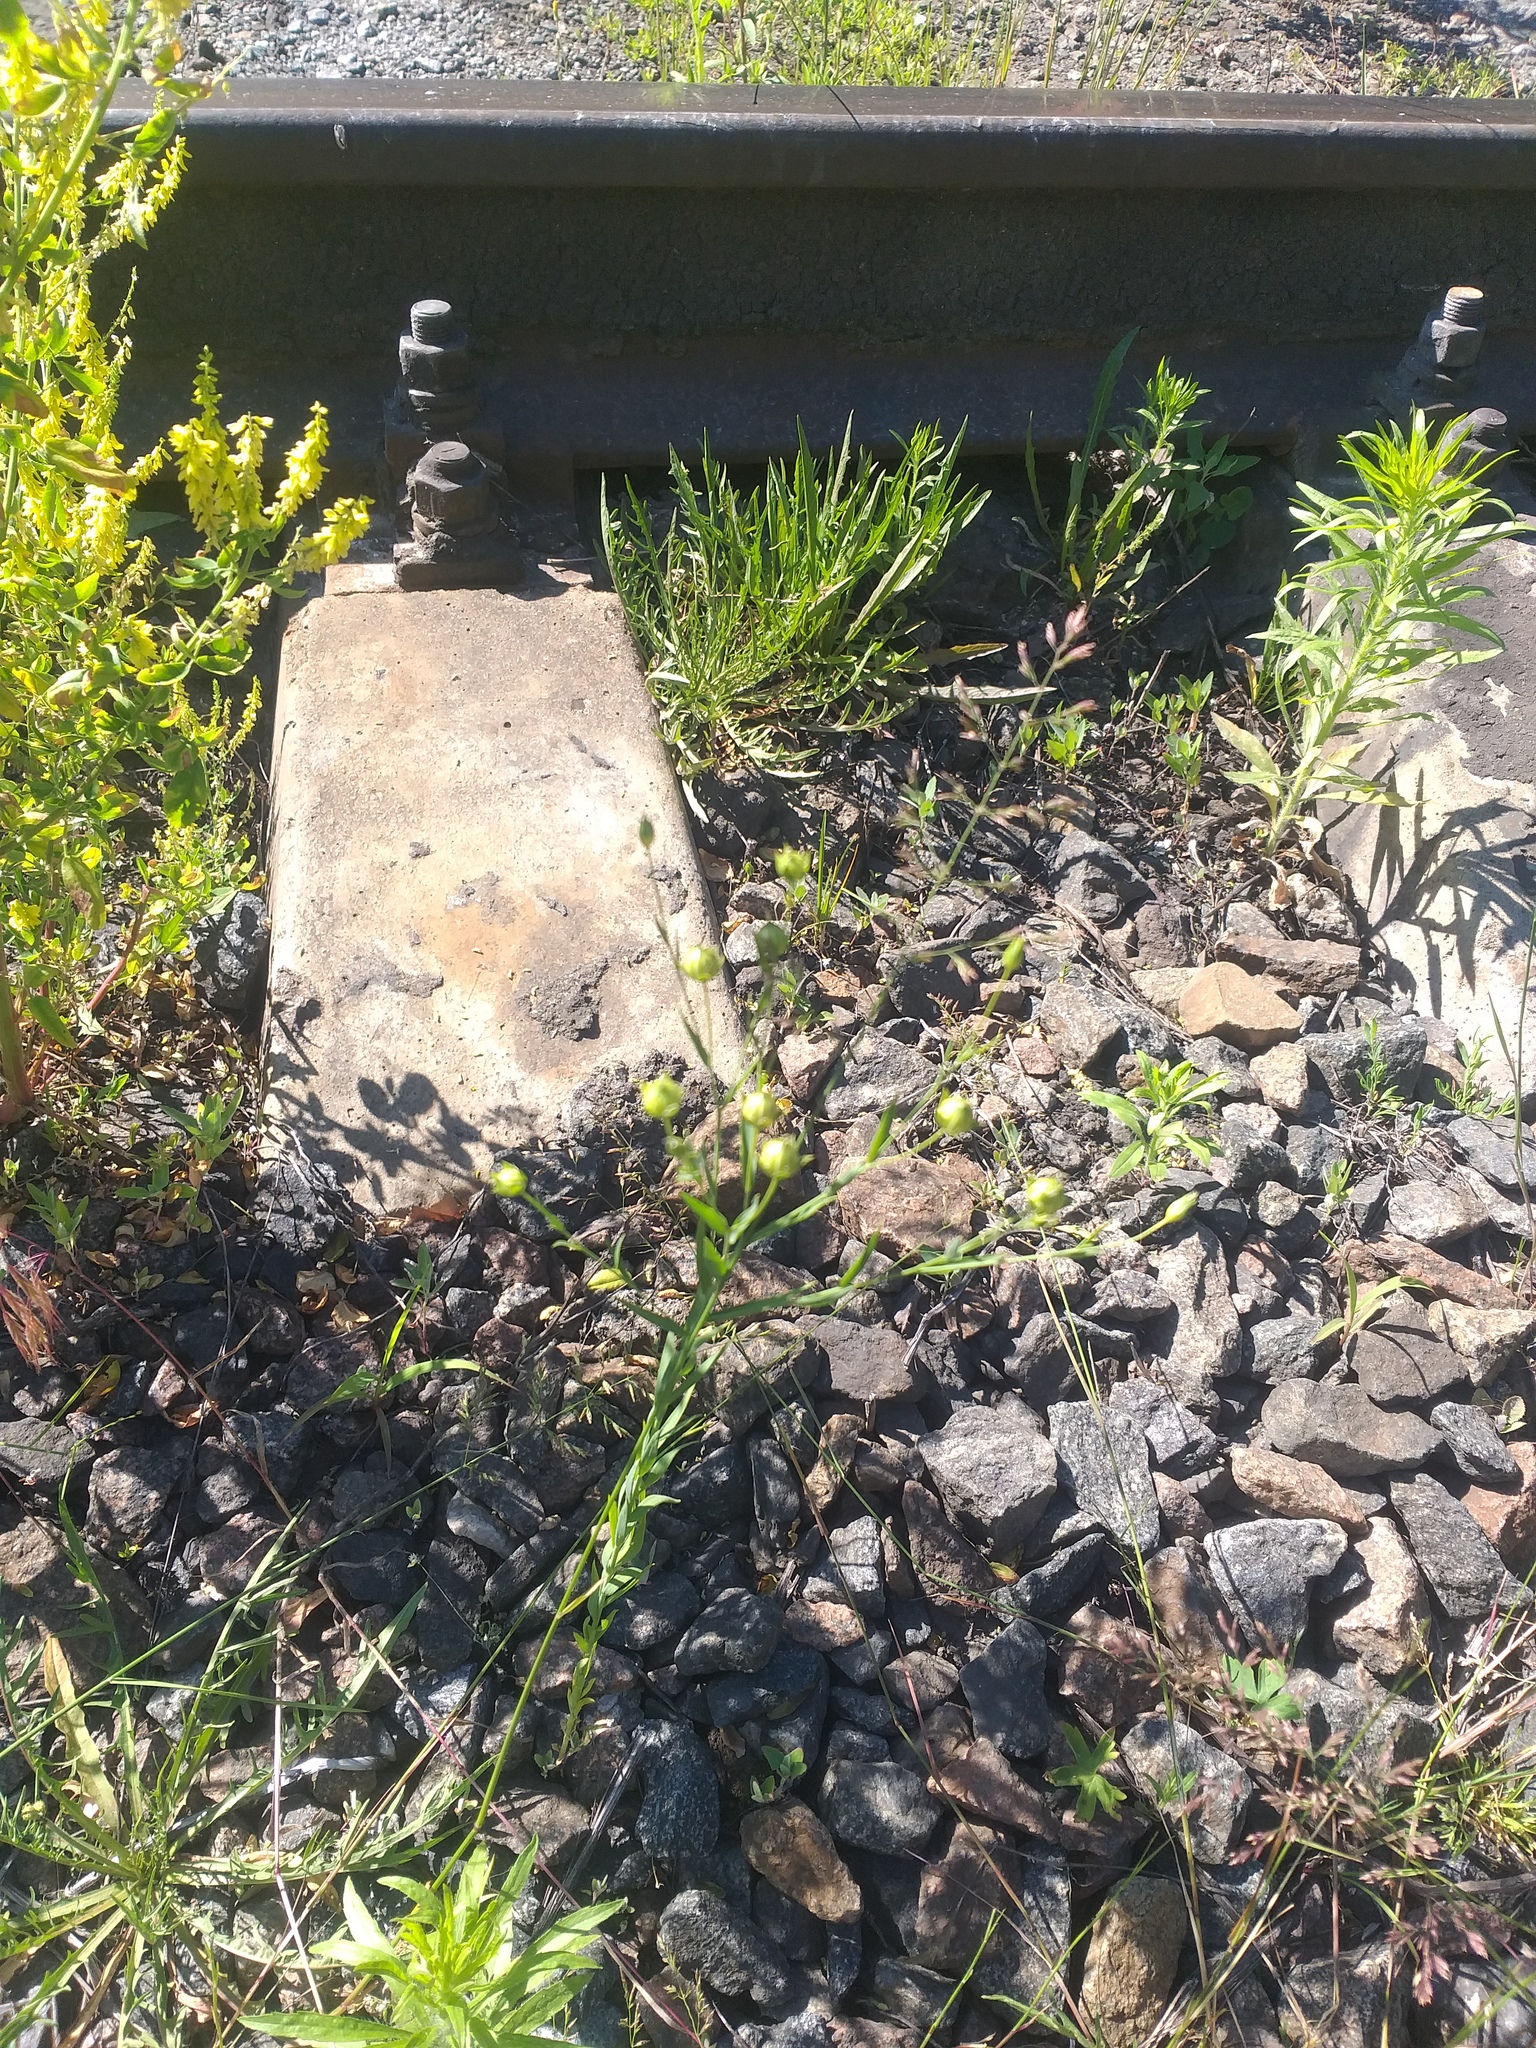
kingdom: Plantae
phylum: Tracheophyta
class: Magnoliopsida
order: Malpighiales
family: Linaceae
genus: Linum
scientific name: Linum usitatissimum
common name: Flax
